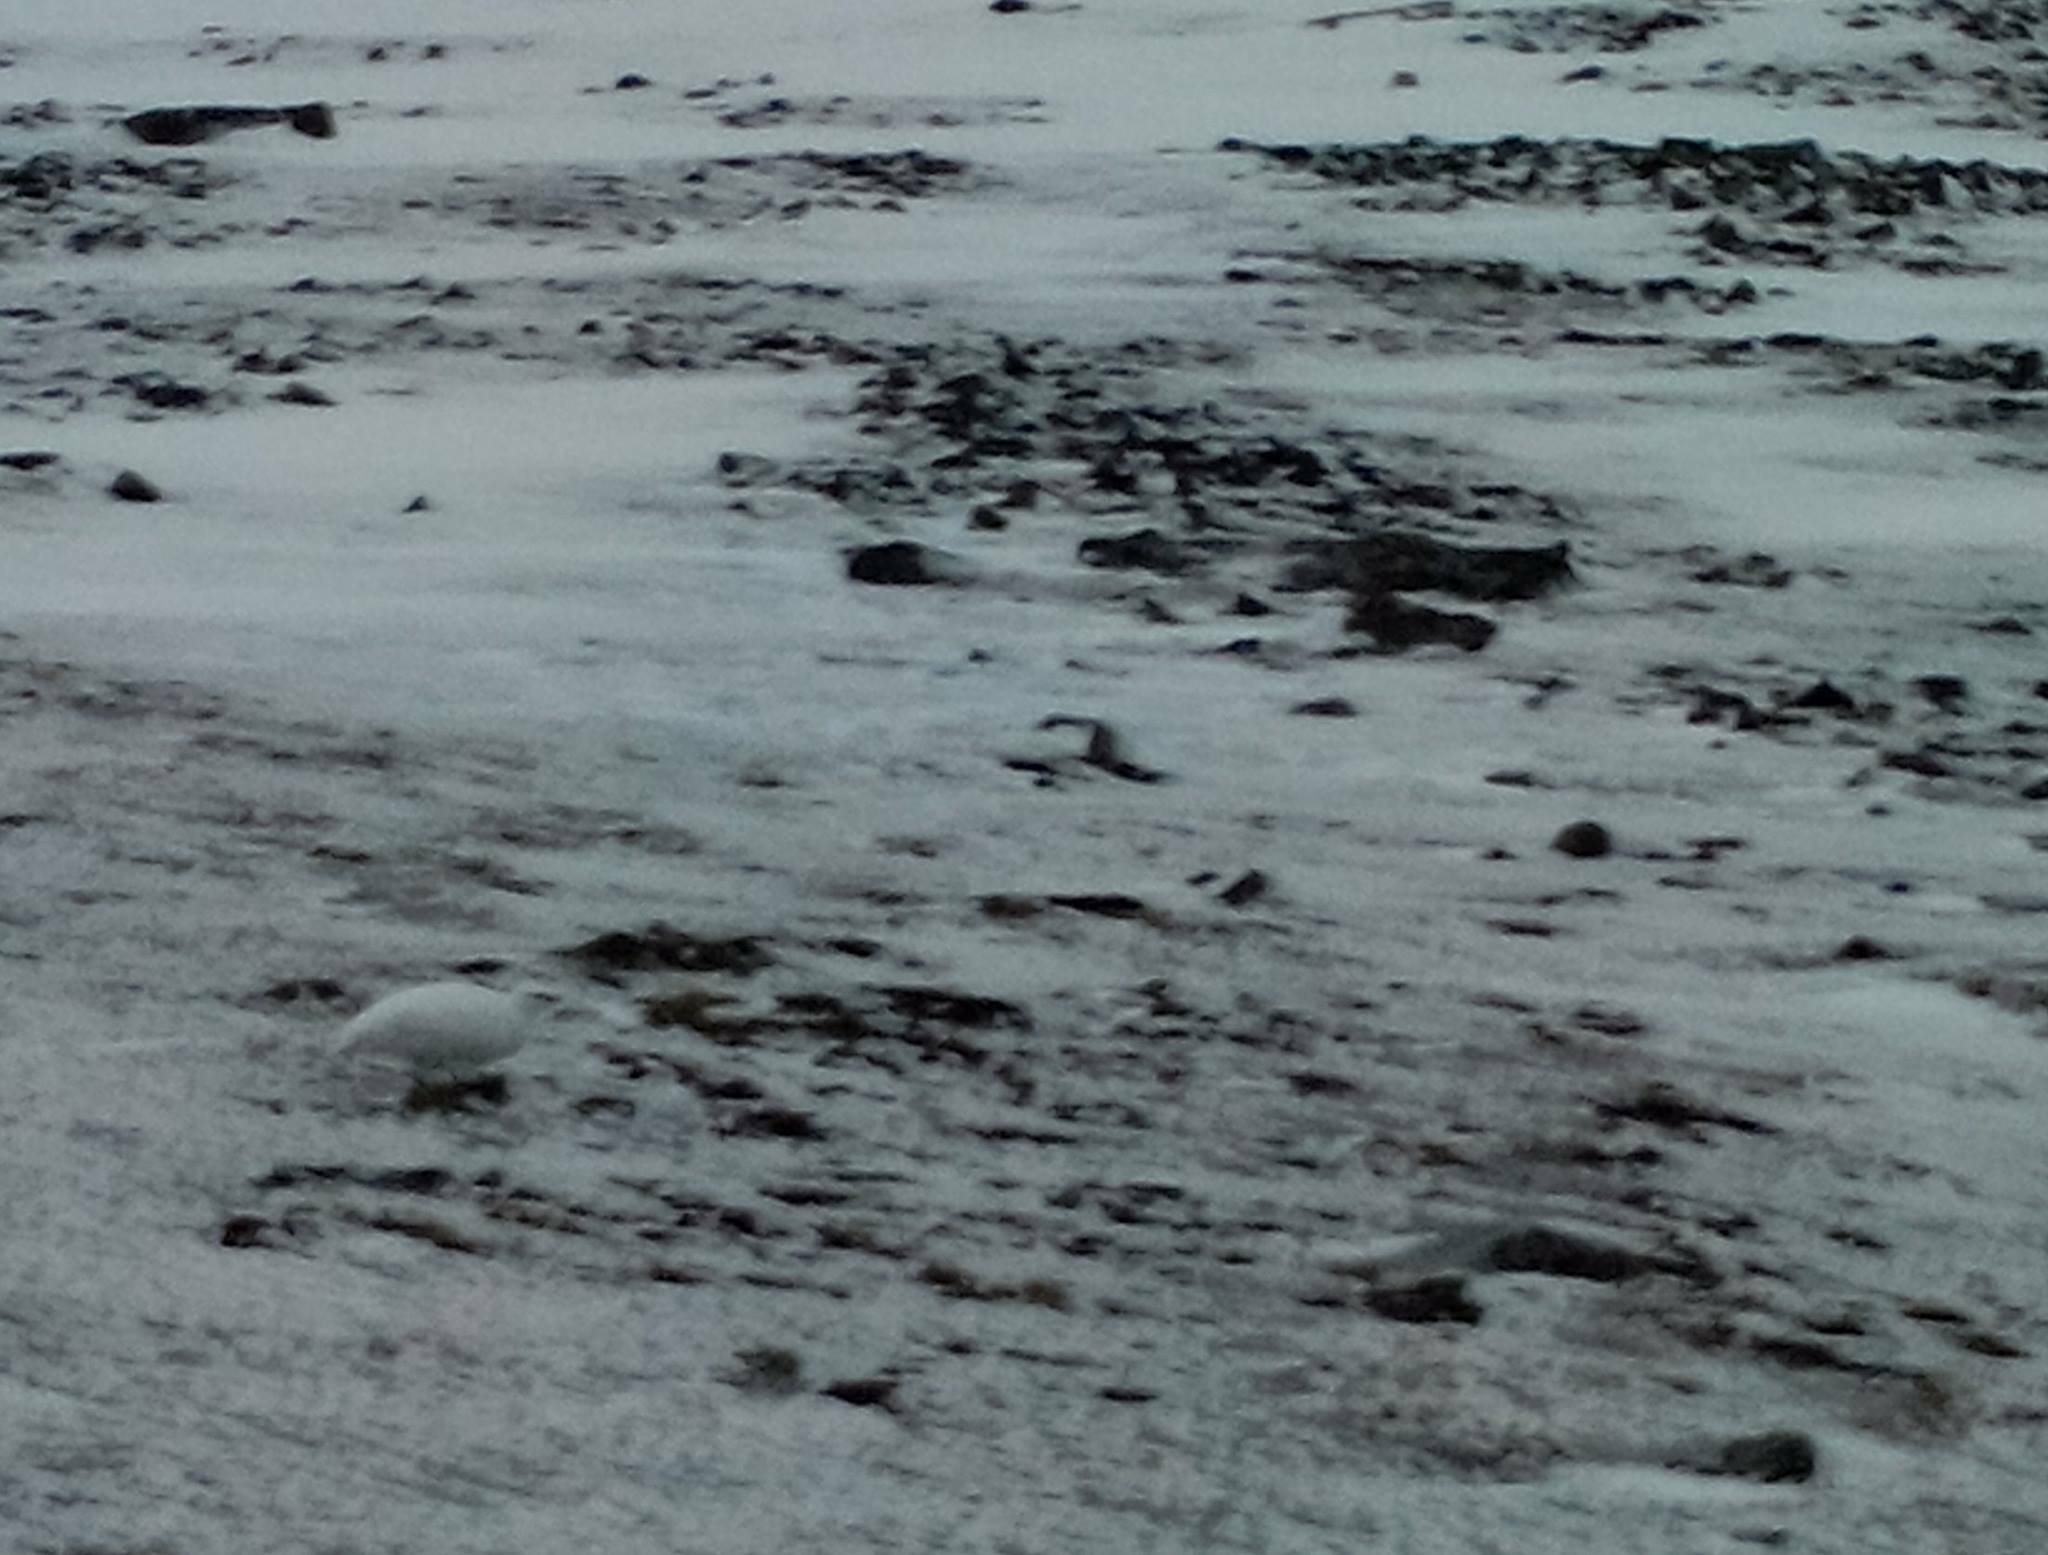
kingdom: Animalia
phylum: Chordata
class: Aves
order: Galliformes
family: Phasianidae
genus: Lagopus
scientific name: Lagopus muta
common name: Rock ptarmigan
